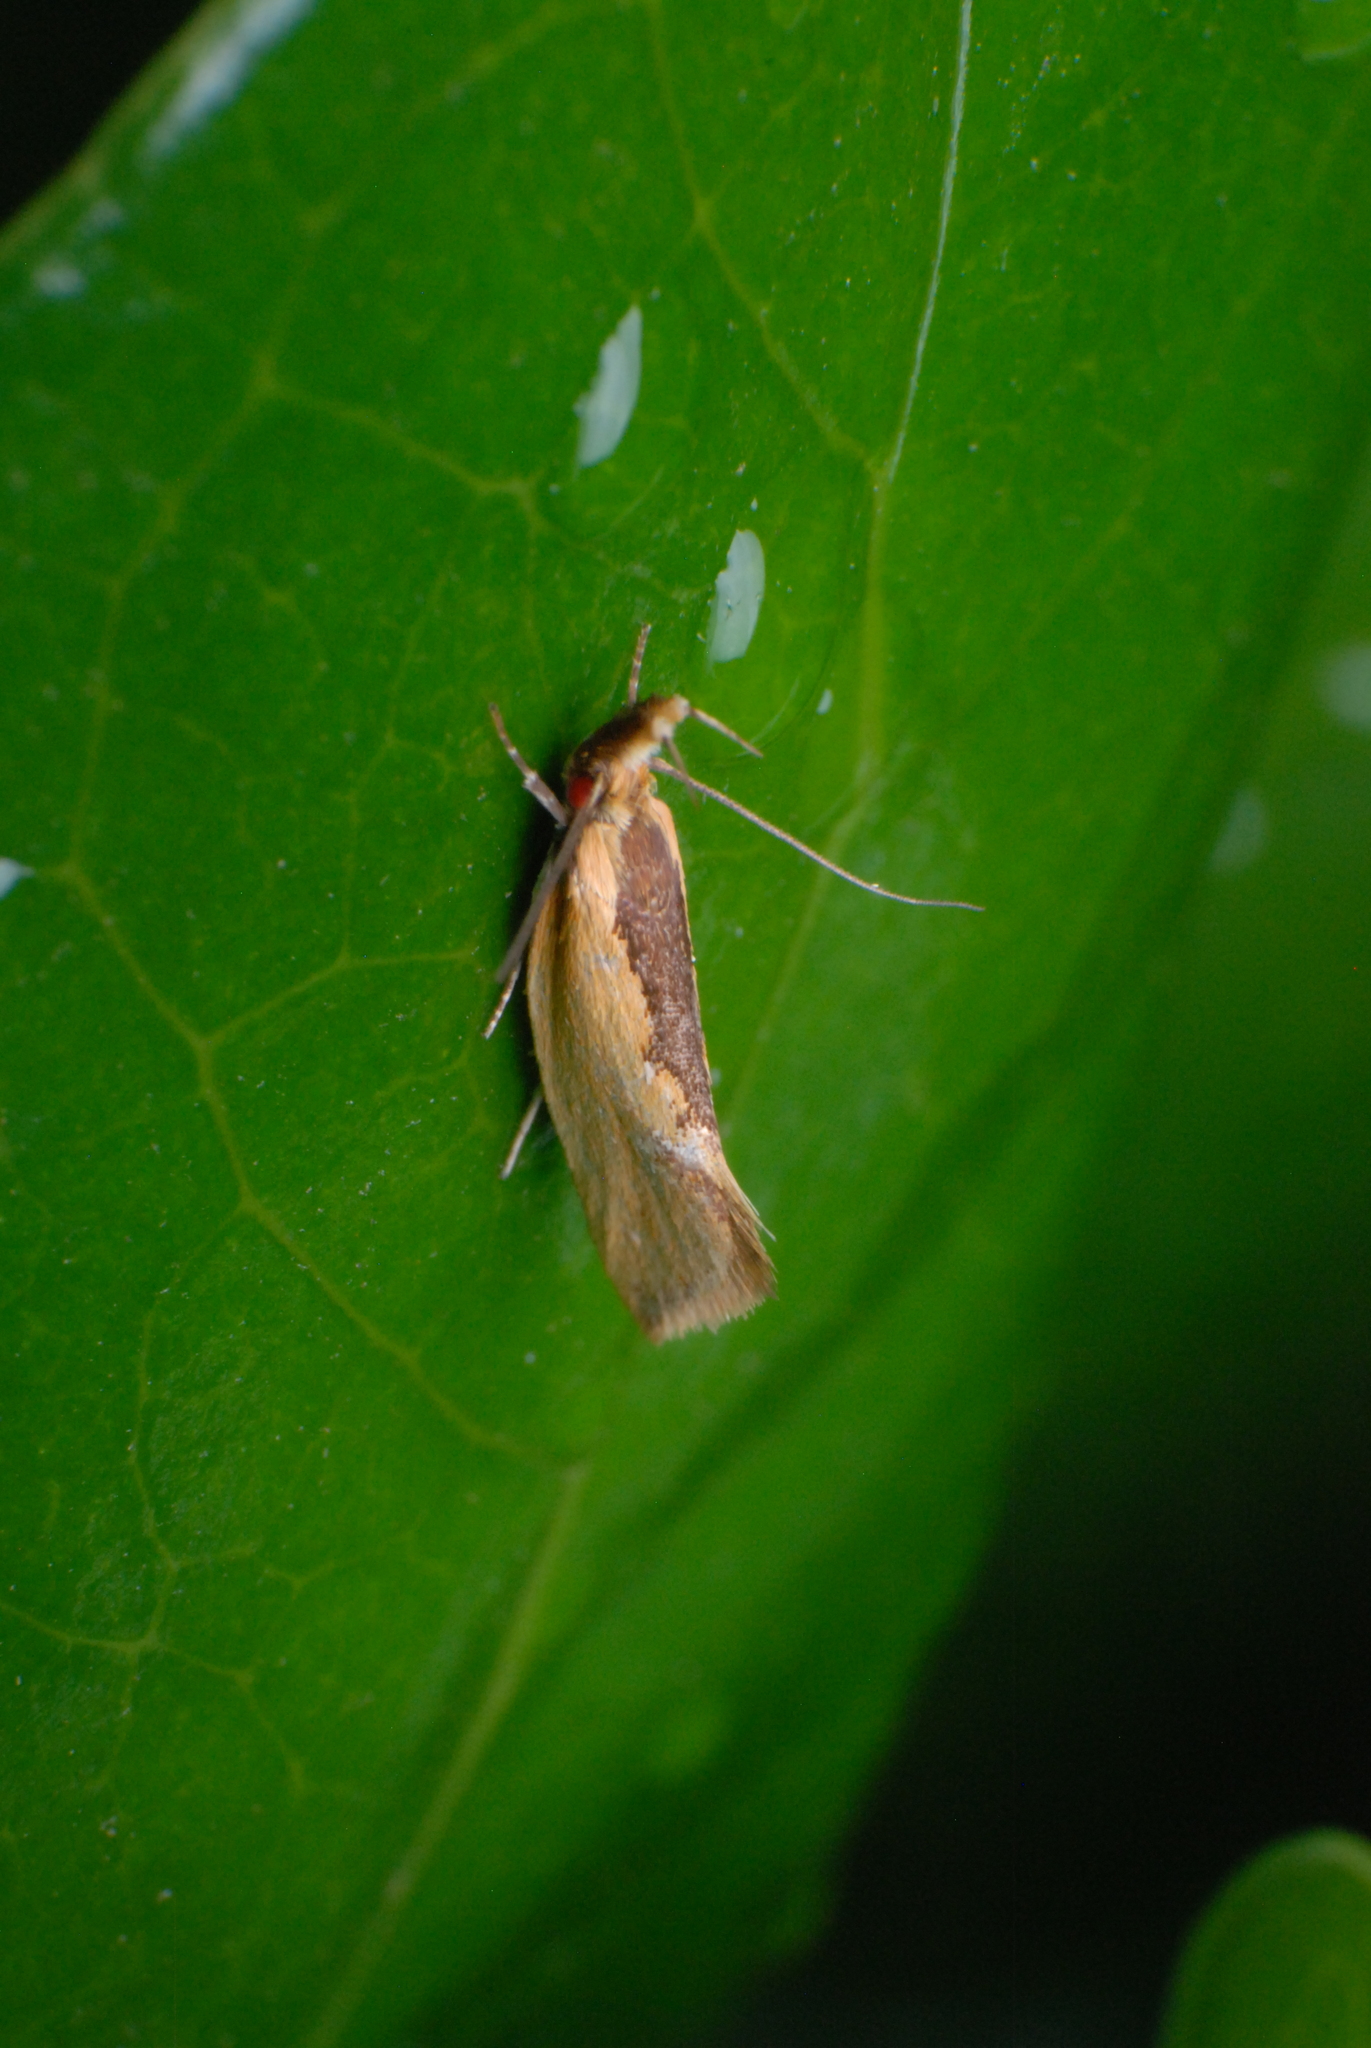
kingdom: Animalia
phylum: Arthropoda
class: Insecta
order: Lepidoptera
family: Oecophoridae
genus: Thema
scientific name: Thema psammoxantha
